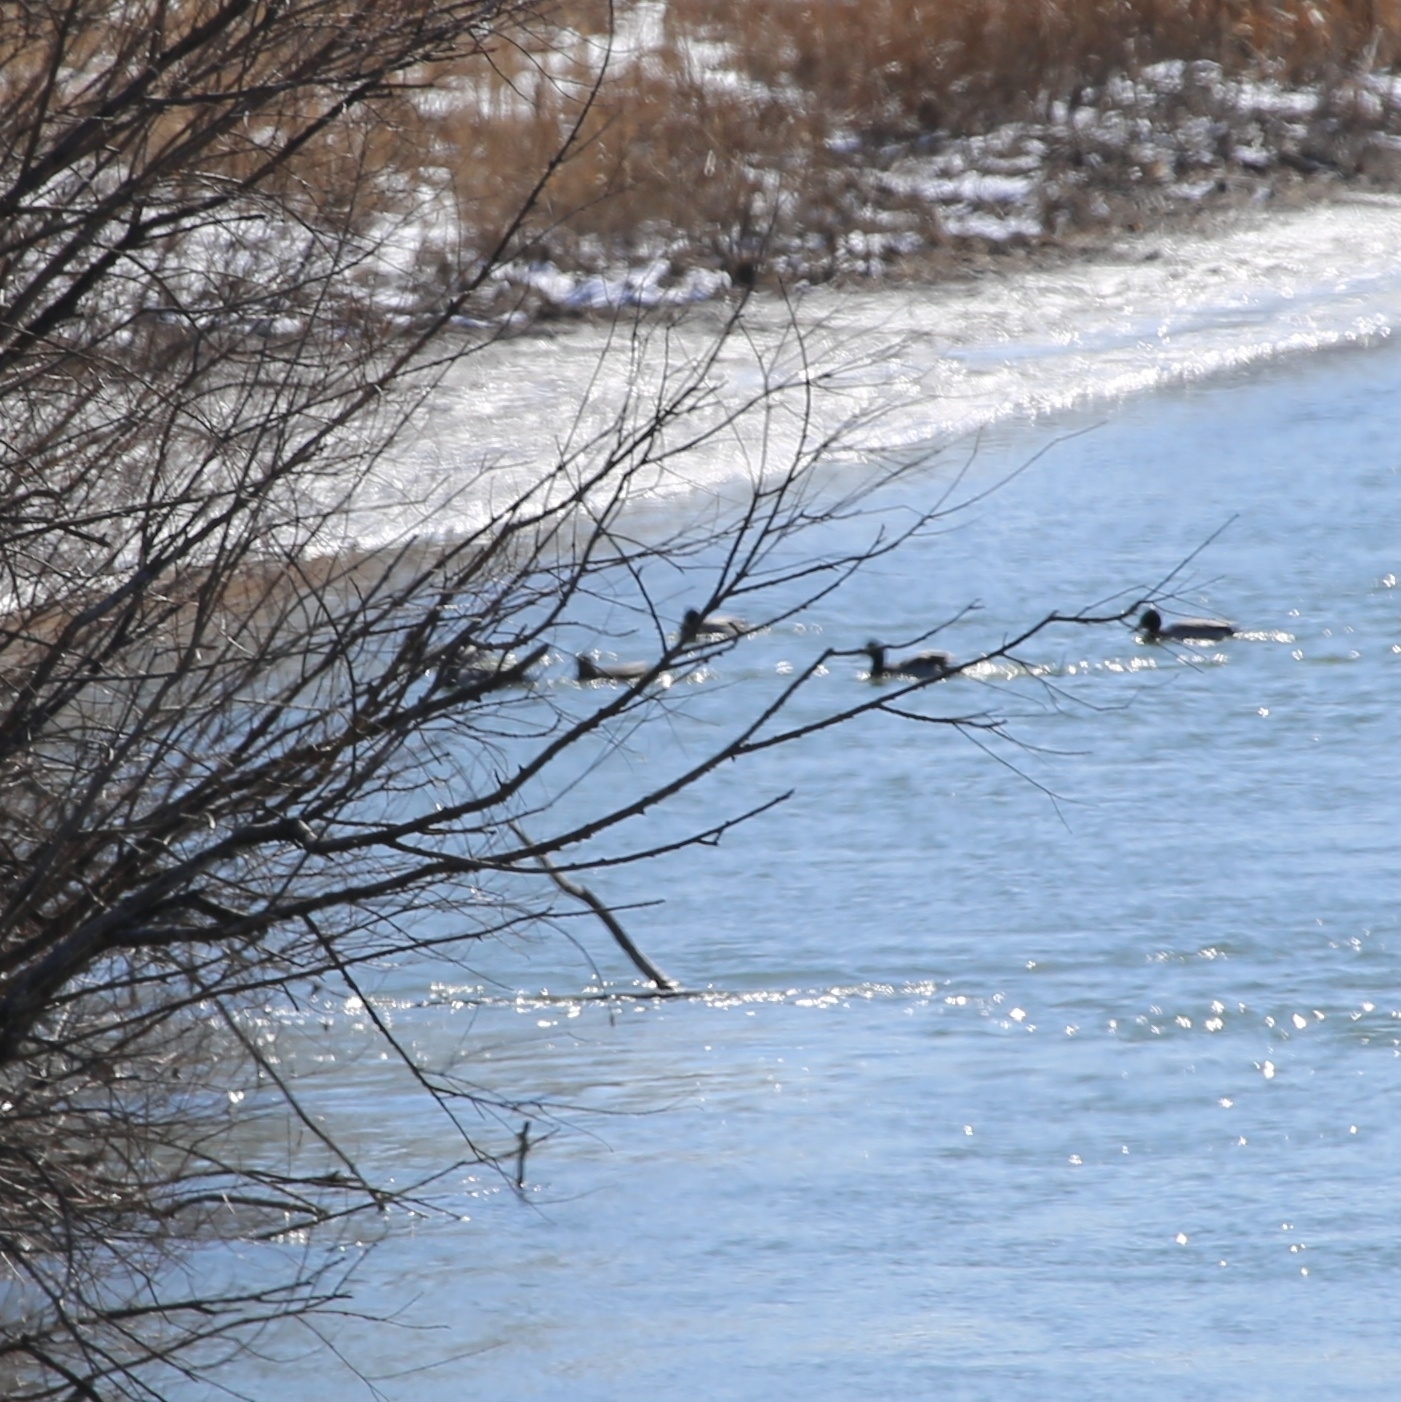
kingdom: Animalia
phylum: Chordata
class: Aves
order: Anseriformes
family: Anatidae
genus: Anas
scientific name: Anas platyrhynchos
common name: Mallard
